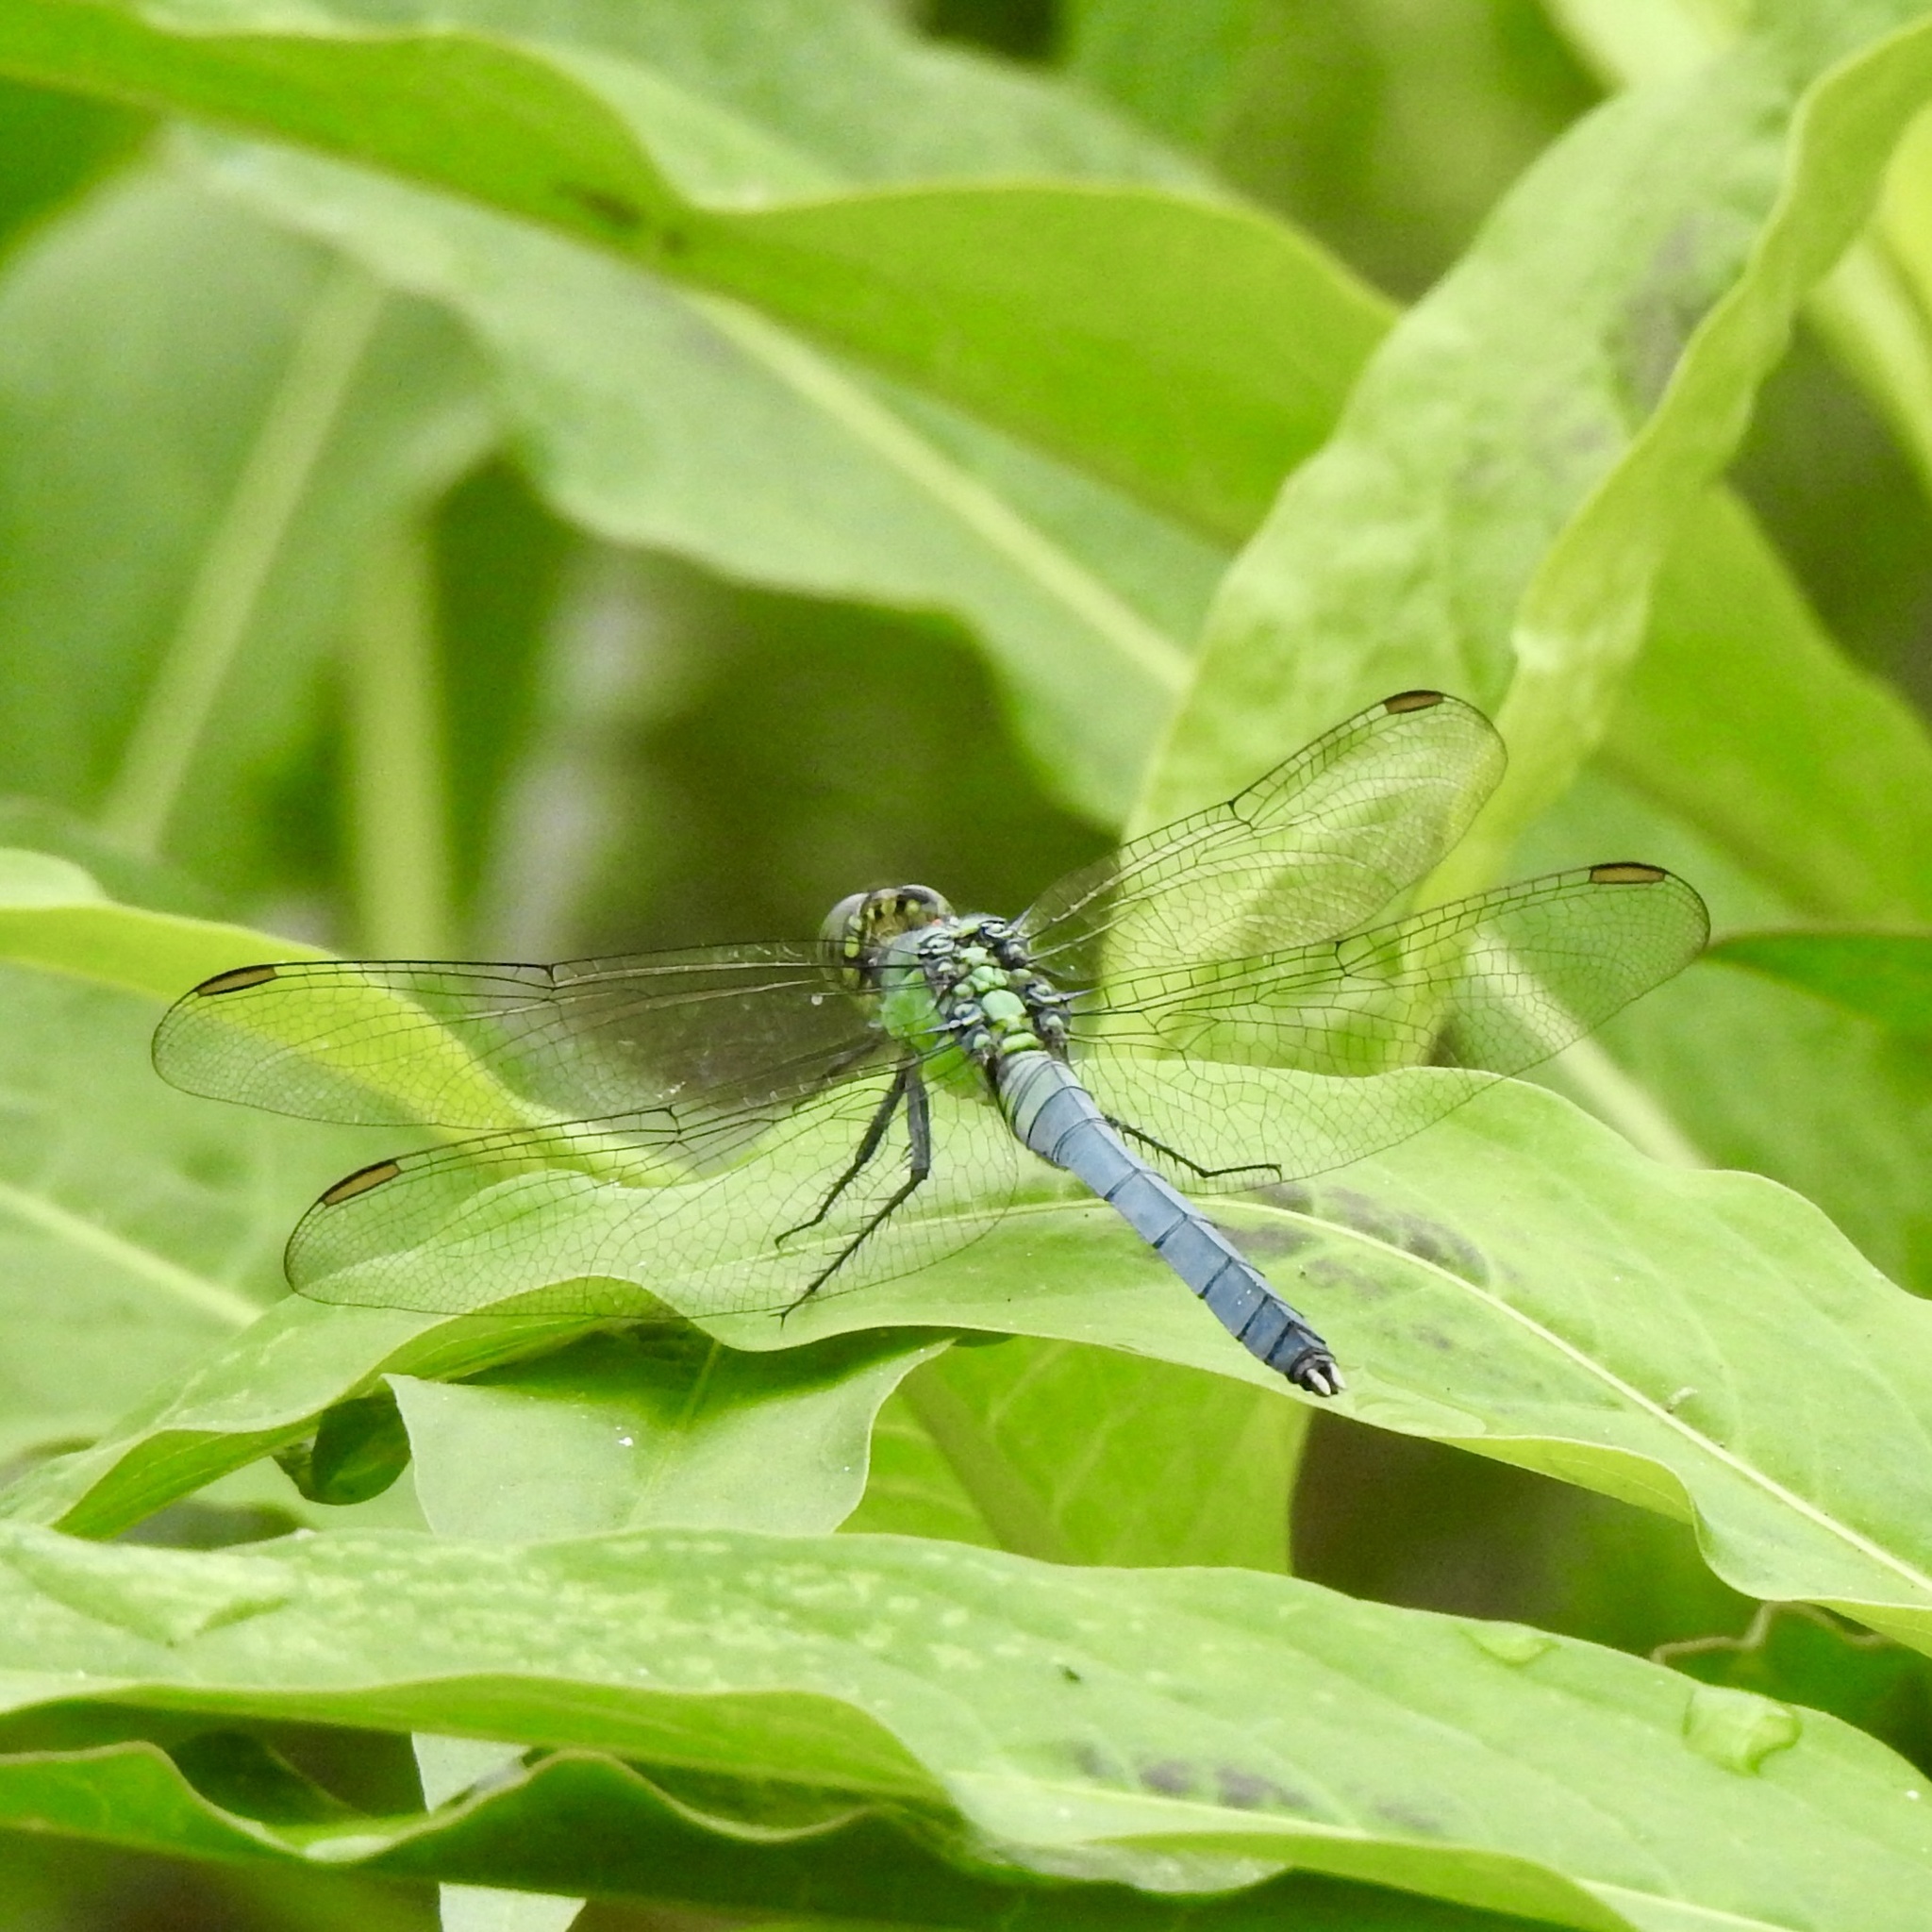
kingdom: Animalia
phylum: Arthropoda
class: Insecta
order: Odonata
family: Libellulidae
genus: Erythemis
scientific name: Erythemis simplicicollis
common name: Eastern pondhawk
